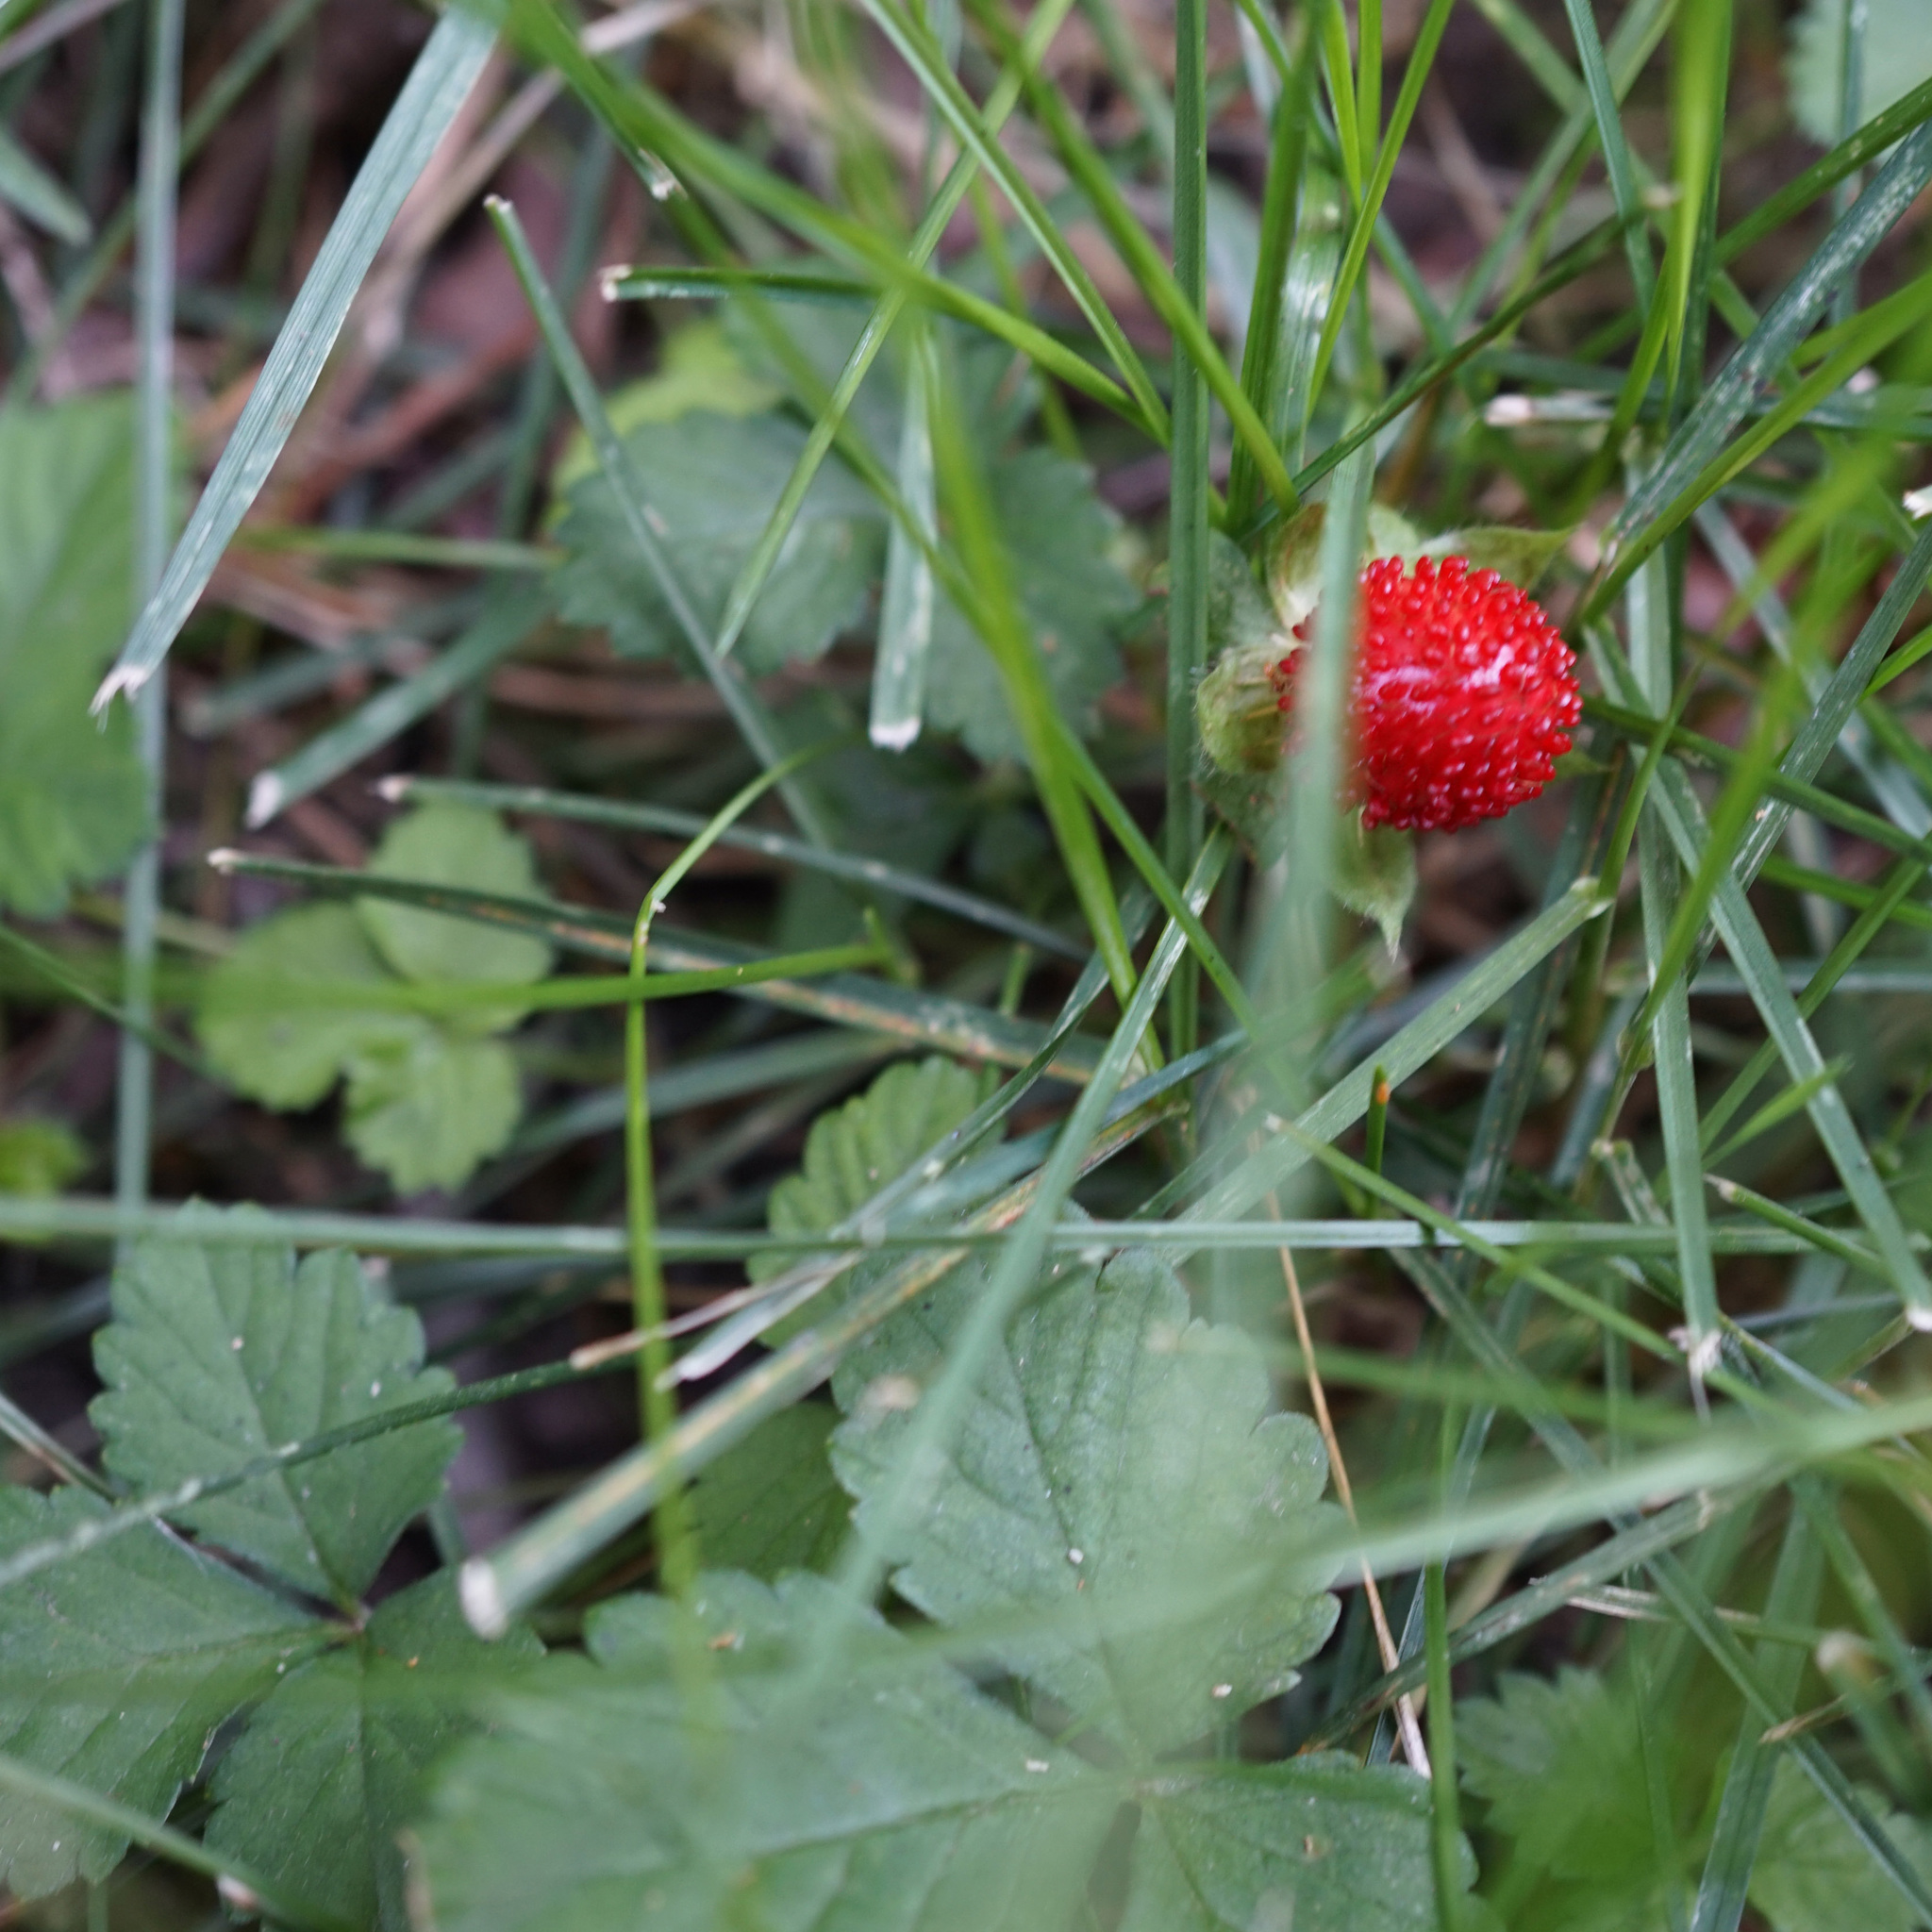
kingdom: Plantae
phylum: Tracheophyta
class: Magnoliopsida
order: Rosales
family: Rosaceae
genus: Potentilla
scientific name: Potentilla indica
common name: Yellow-flowered strawberry
